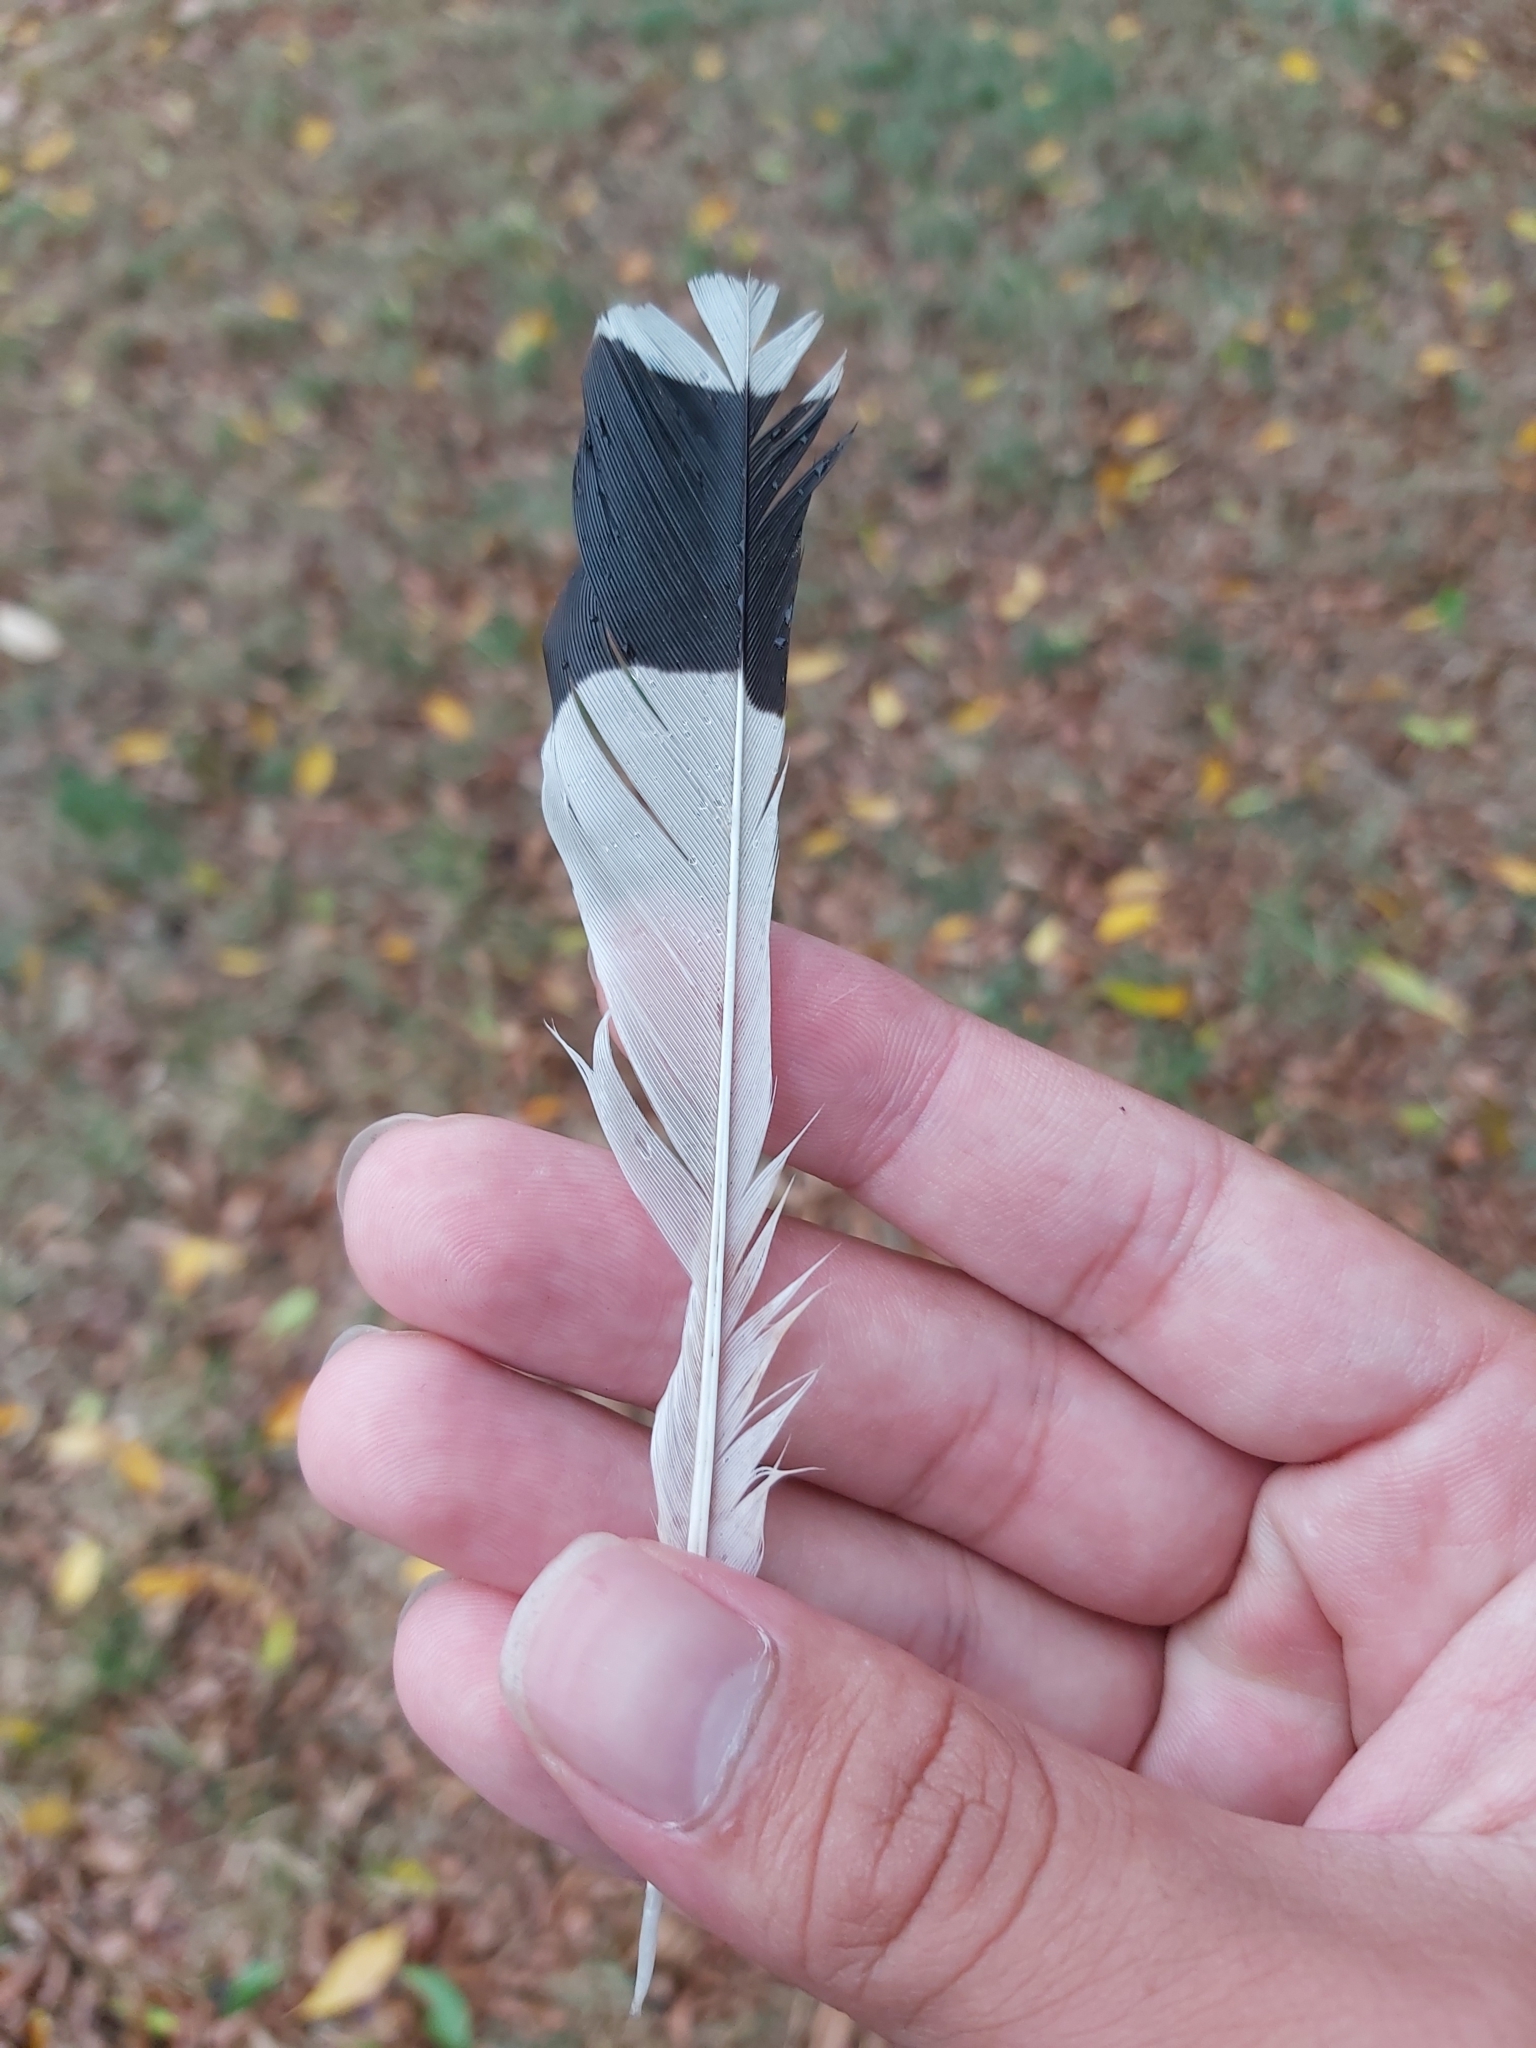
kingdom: Animalia
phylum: Chordata
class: Aves
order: Passeriformes
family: Monarchidae
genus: Grallina
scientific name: Grallina cyanoleuca
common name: Magpie-lark
